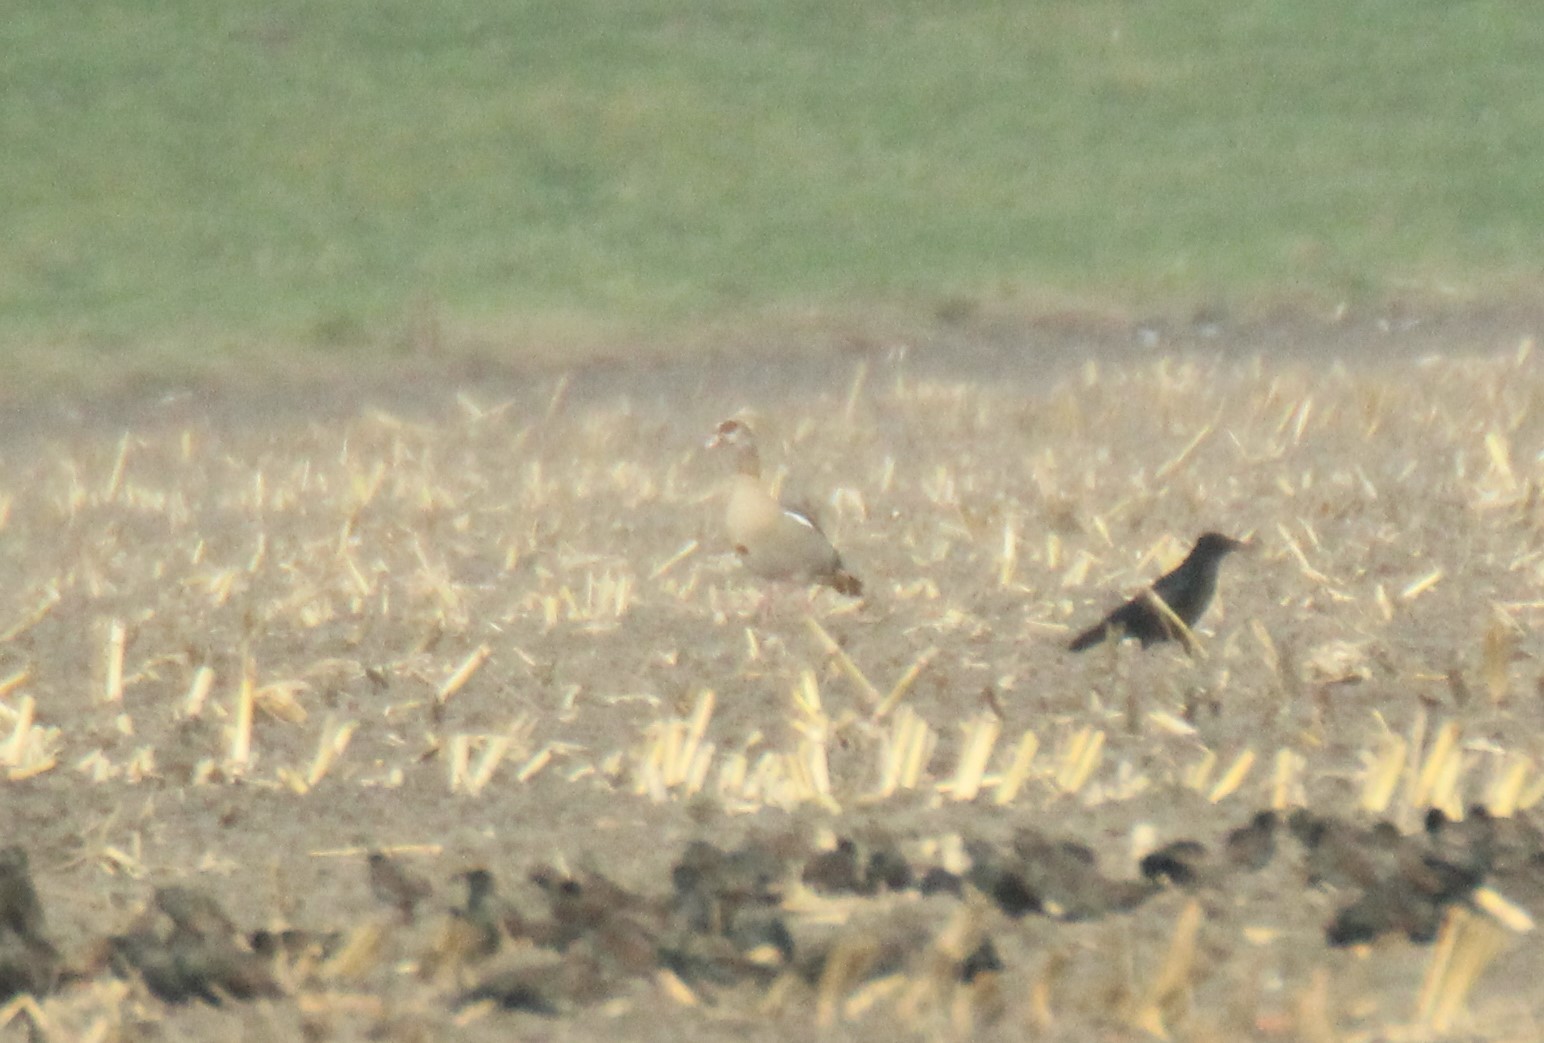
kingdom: Animalia
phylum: Chordata
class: Aves
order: Anseriformes
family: Anatidae
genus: Alopochen
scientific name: Alopochen aegyptiaca
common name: Egyptian goose
